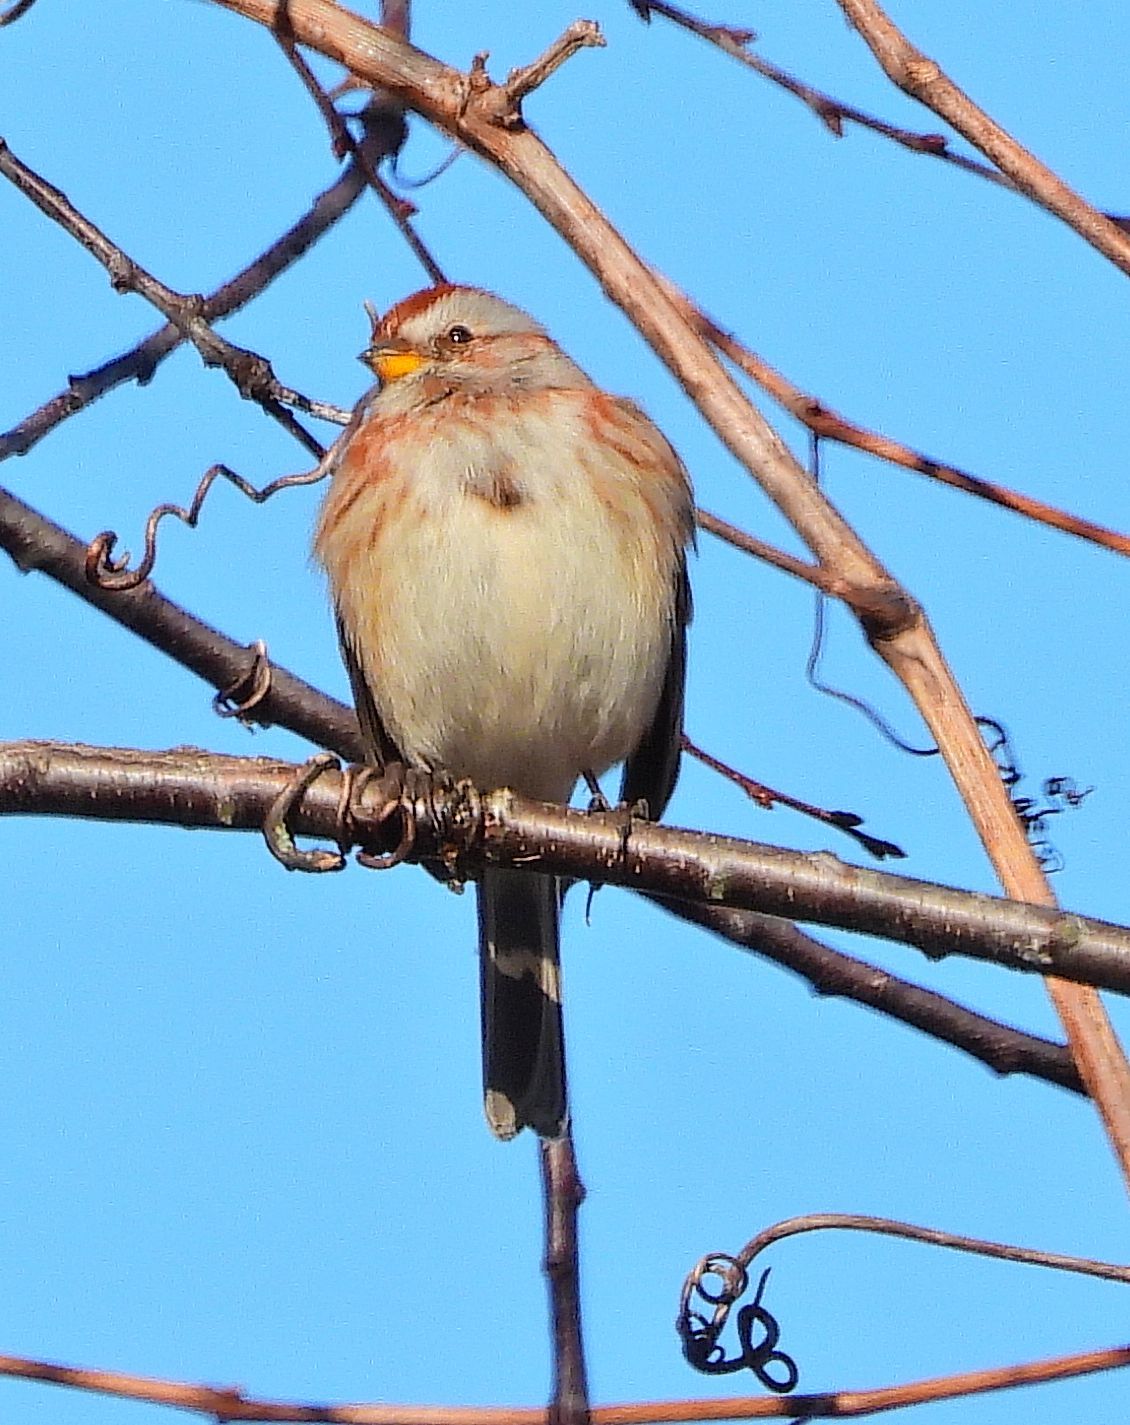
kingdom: Animalia
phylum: Chordata
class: Aves
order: Passeriformes
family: Passerellidae
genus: Spizelloides
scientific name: Spizelloides arborea
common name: American tree sparrow
